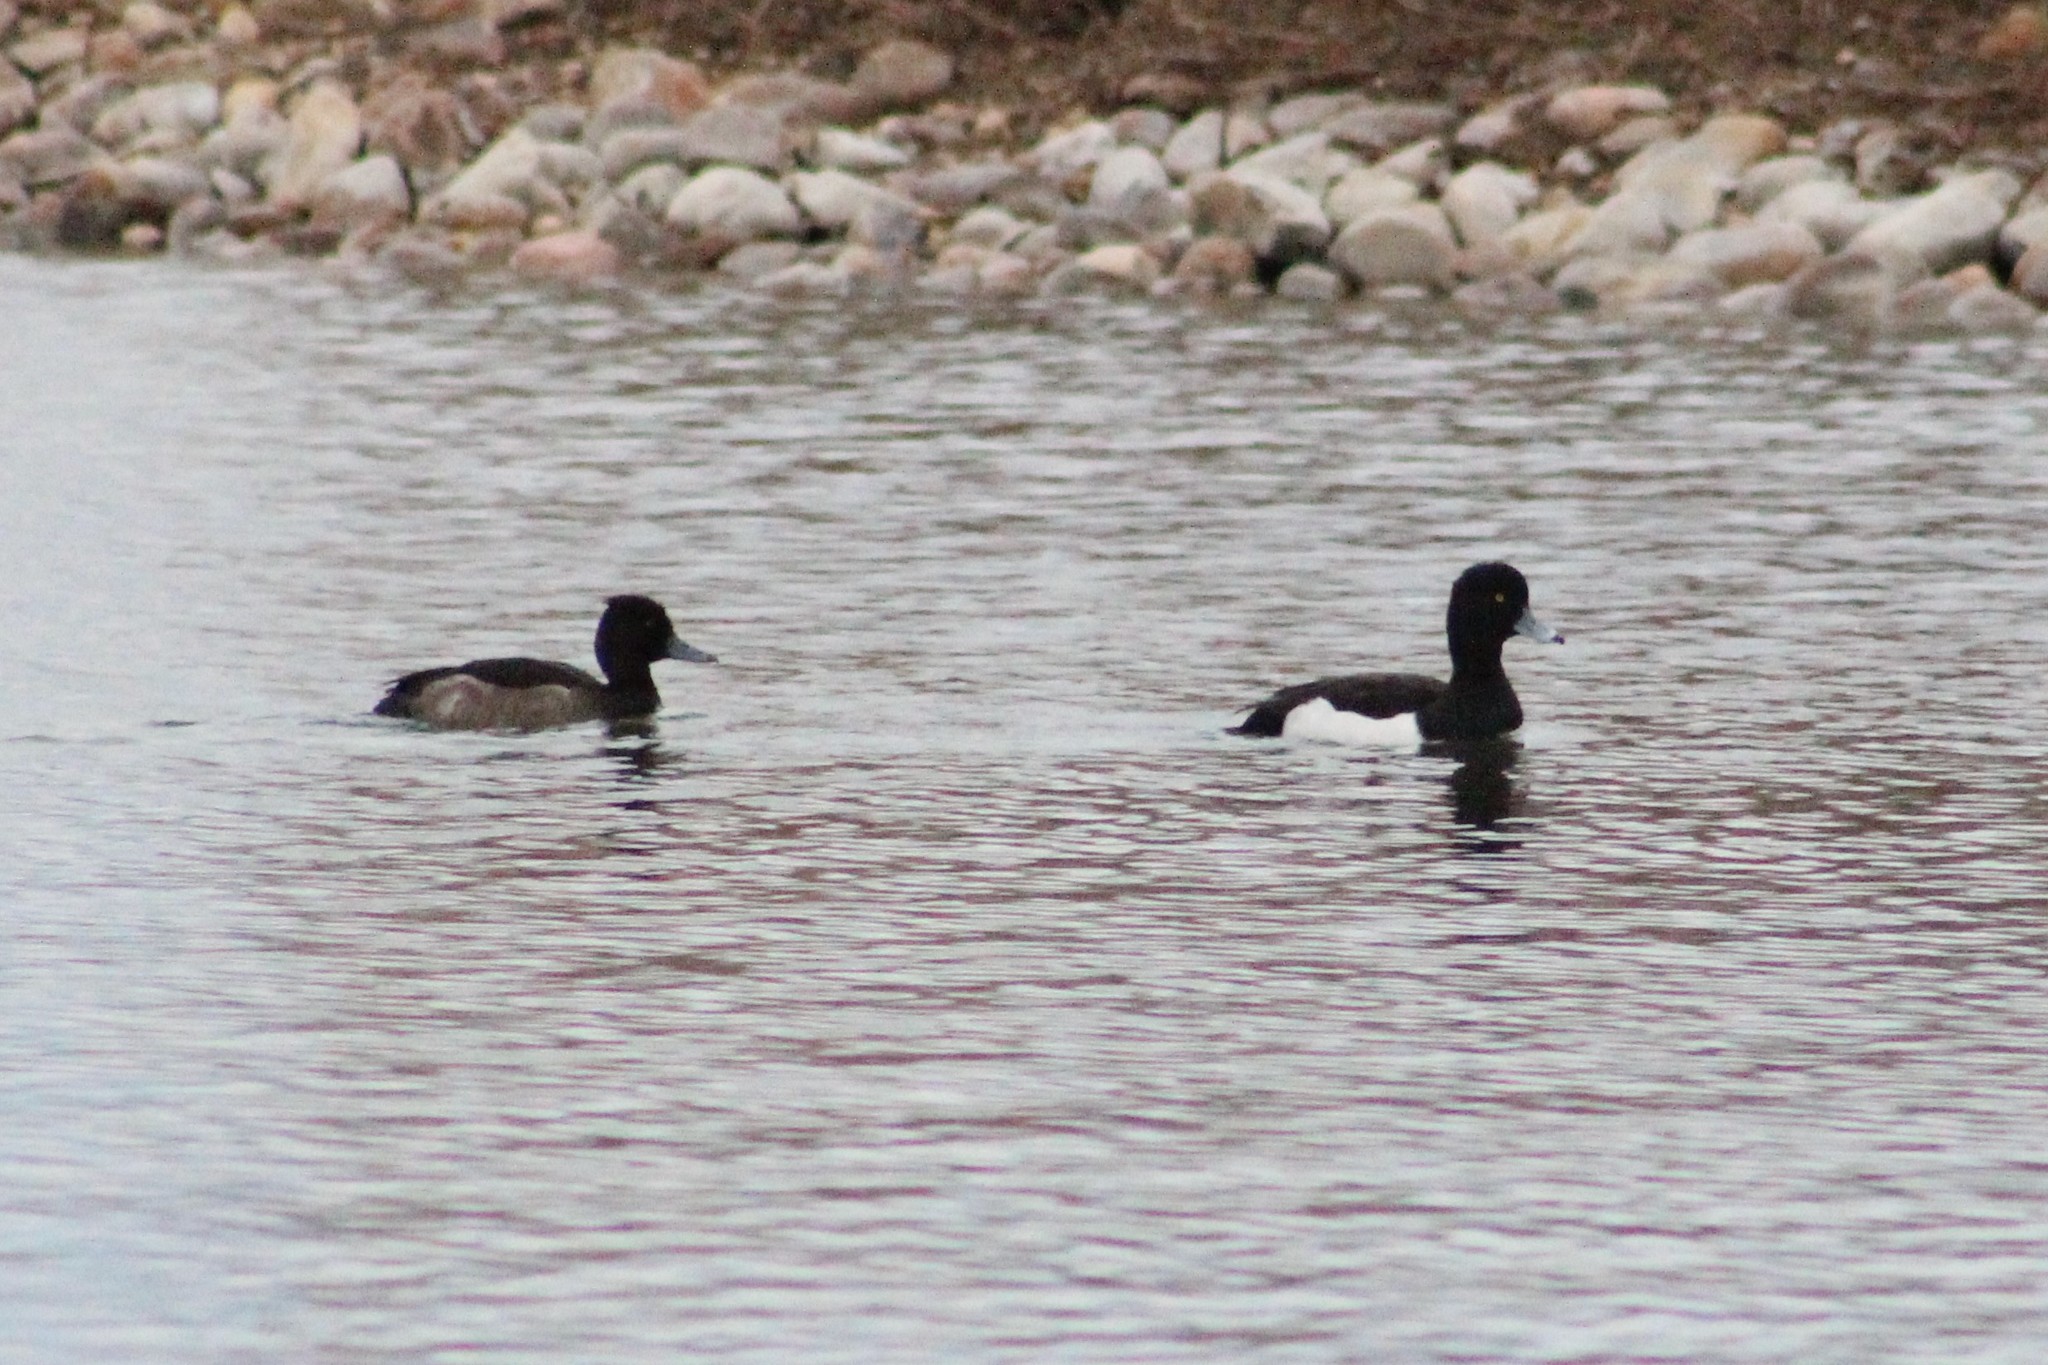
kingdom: Animalia
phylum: Chordata
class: Aves
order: Anseriformes
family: Anatidae
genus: Aythya
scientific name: Aythya fuligula
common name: Tufted duck
